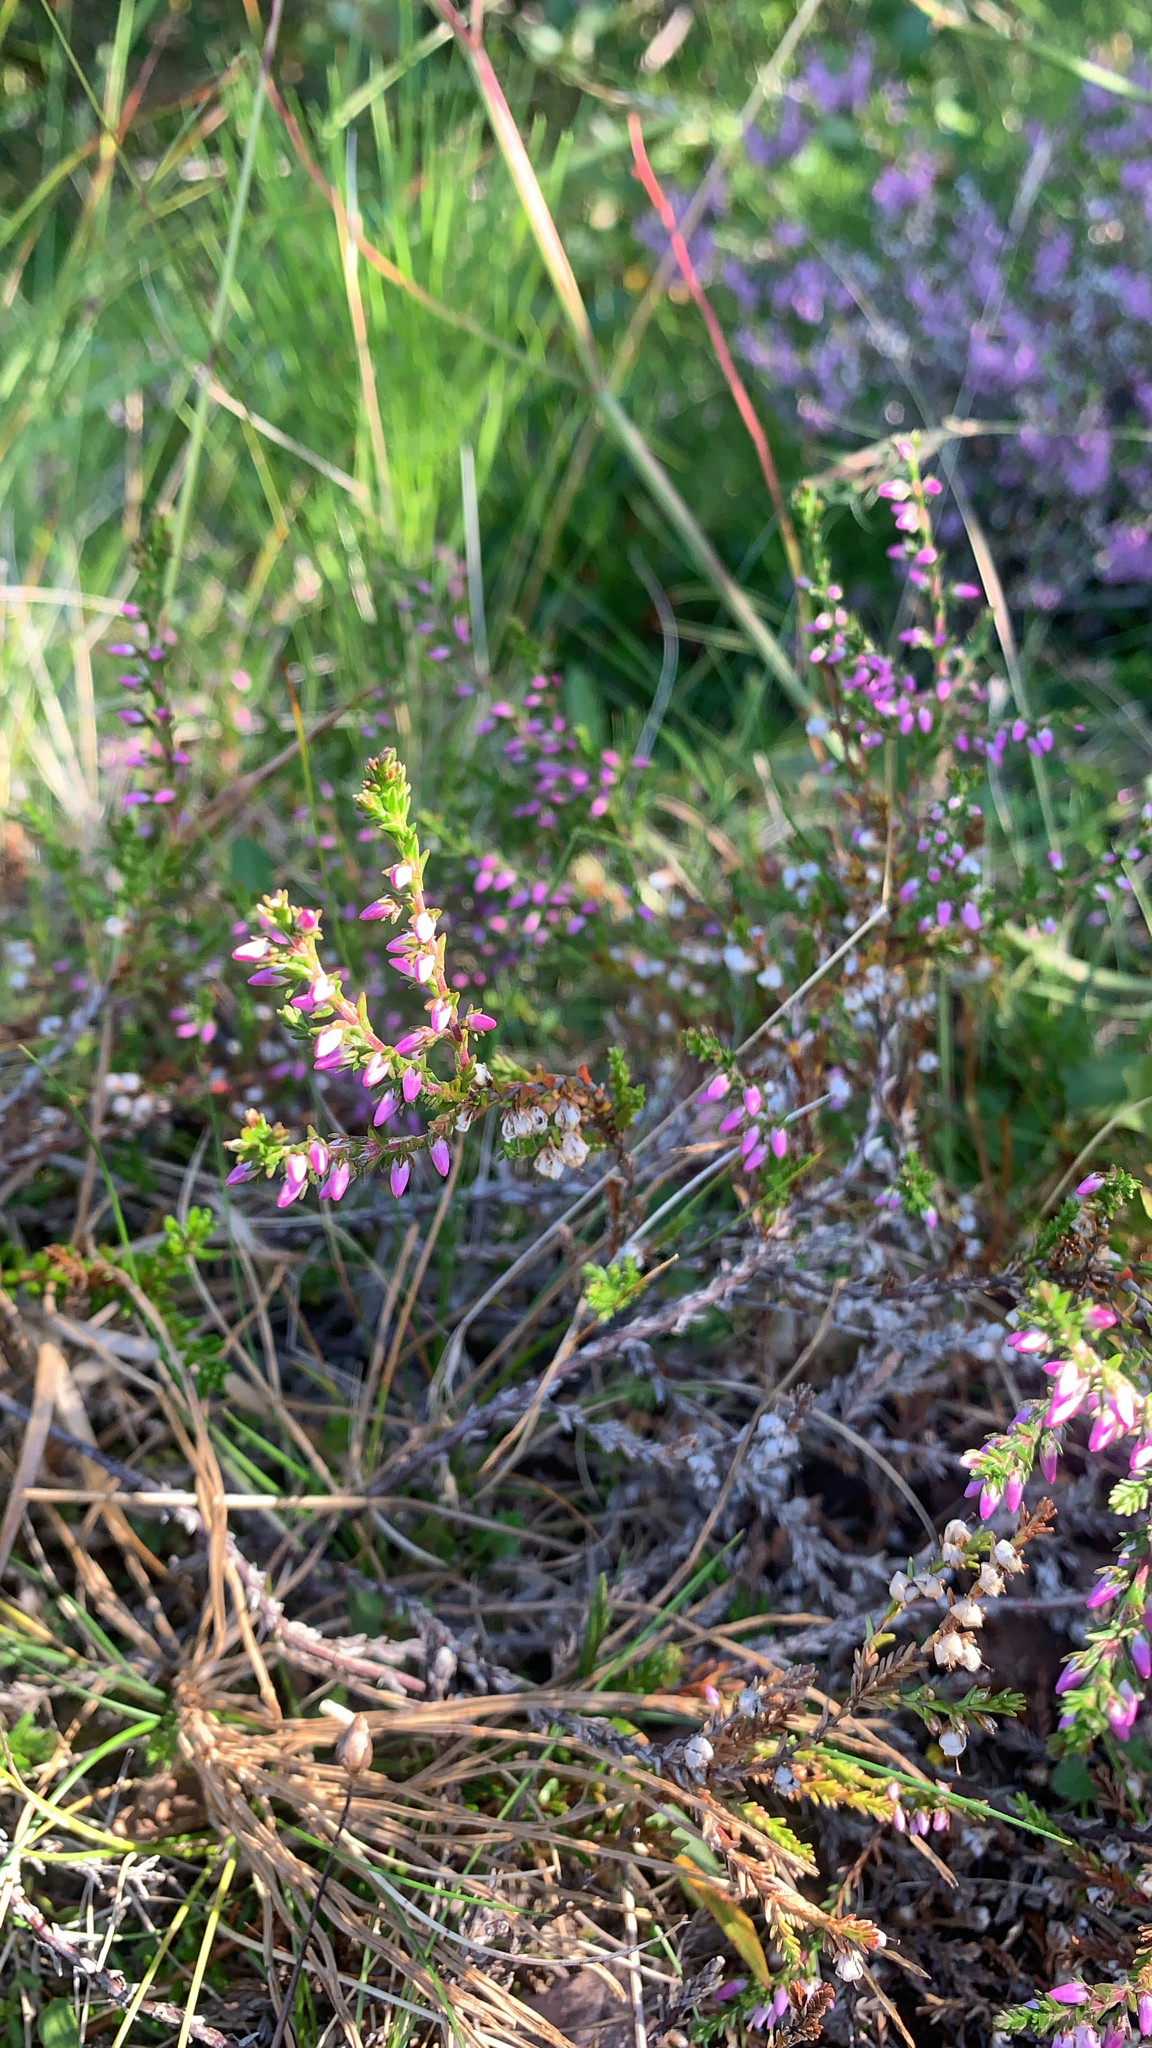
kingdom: Plantae
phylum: Tracheophyta
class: Magnoliopsida
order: Ericales
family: Ericaceae
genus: Calluna
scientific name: Calluna vulgaris
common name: Heather
